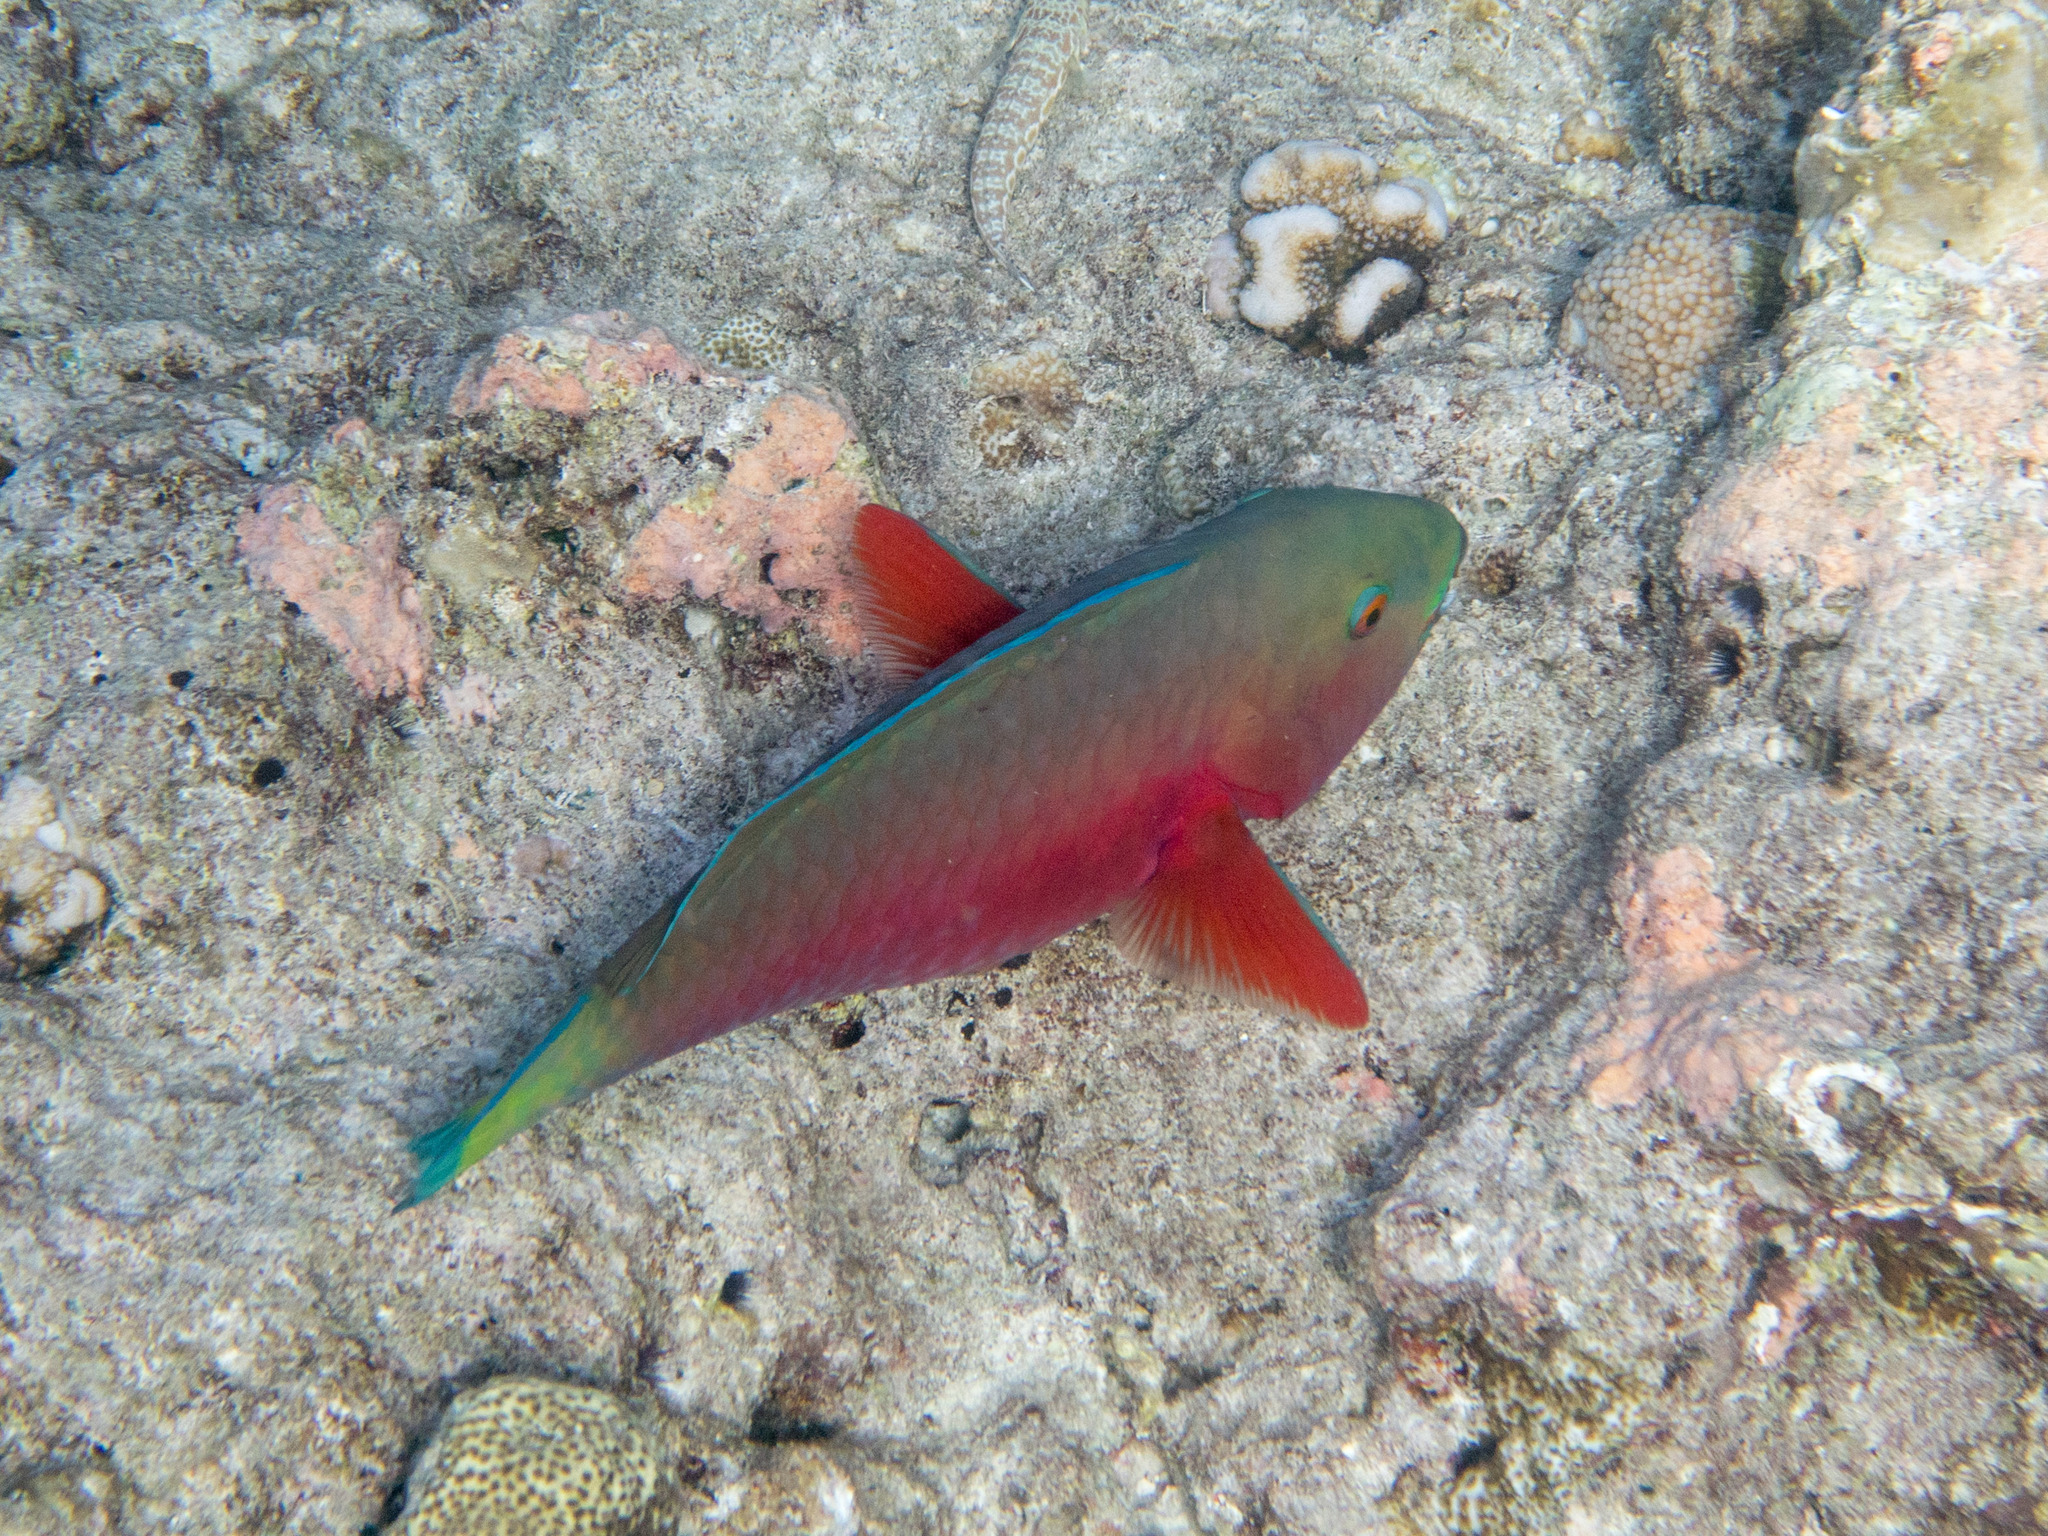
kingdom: Animalia
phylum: Chordata
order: Perciformes
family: Scaridae
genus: Chlorurus
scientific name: Chlorurus strongylocephalus
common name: Steephead parrotfish
